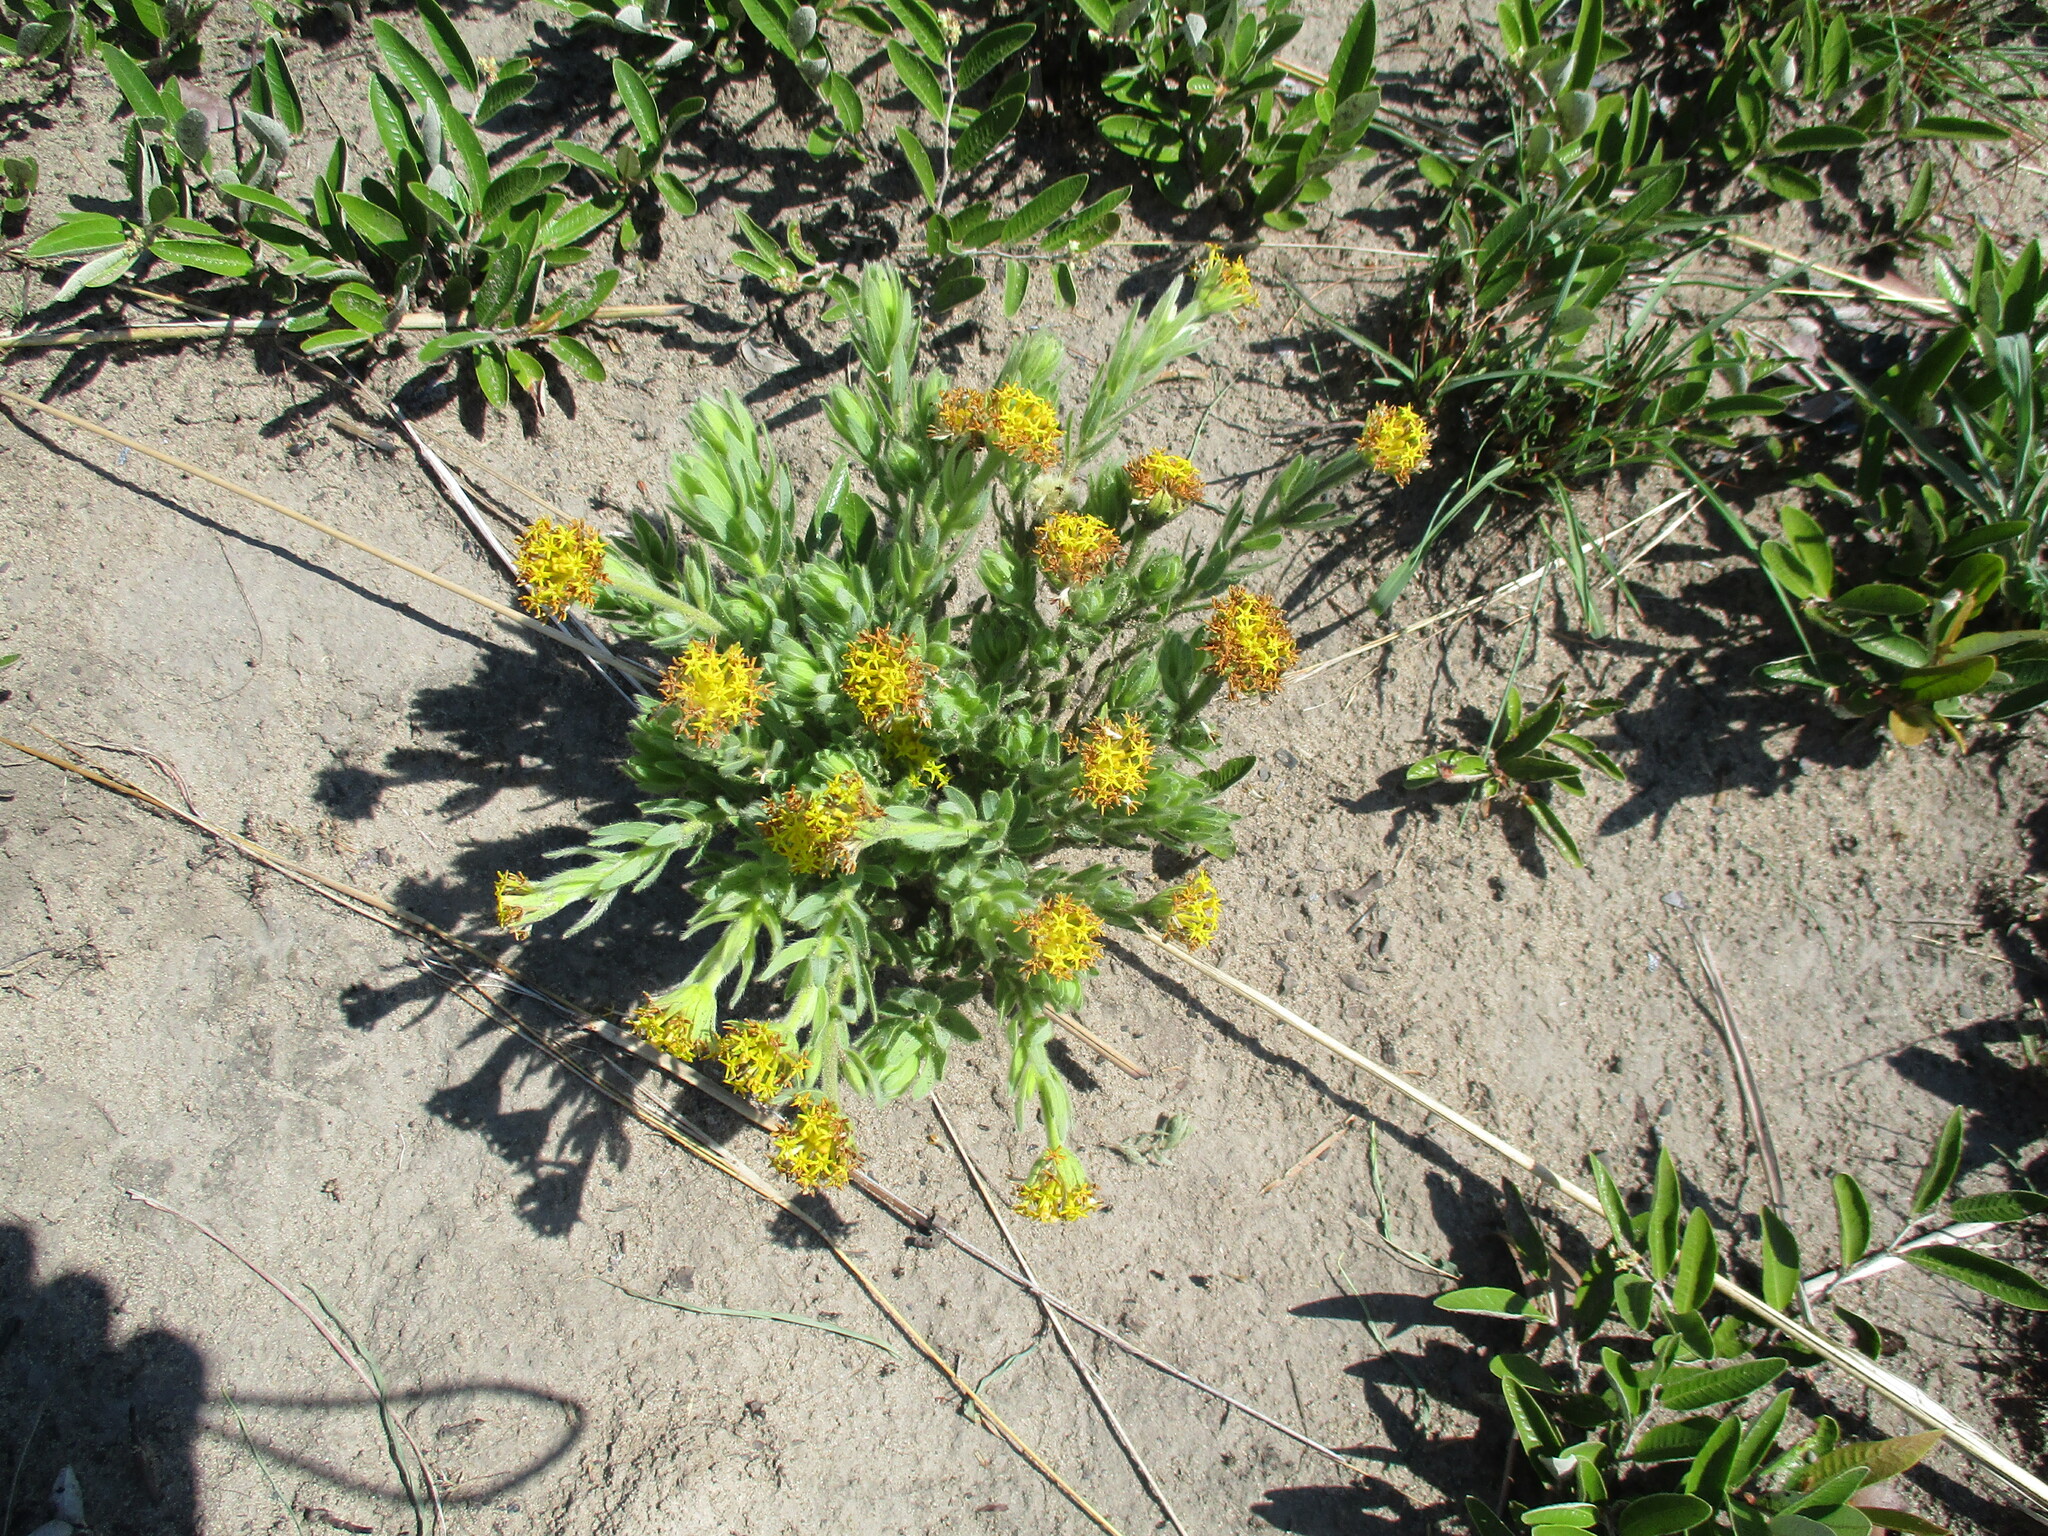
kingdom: Plantae
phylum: Tracheophyta
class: Magnoliopsida
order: Malvales
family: Thymelaeaceae
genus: Gnidia
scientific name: Gnidia kraussiana
